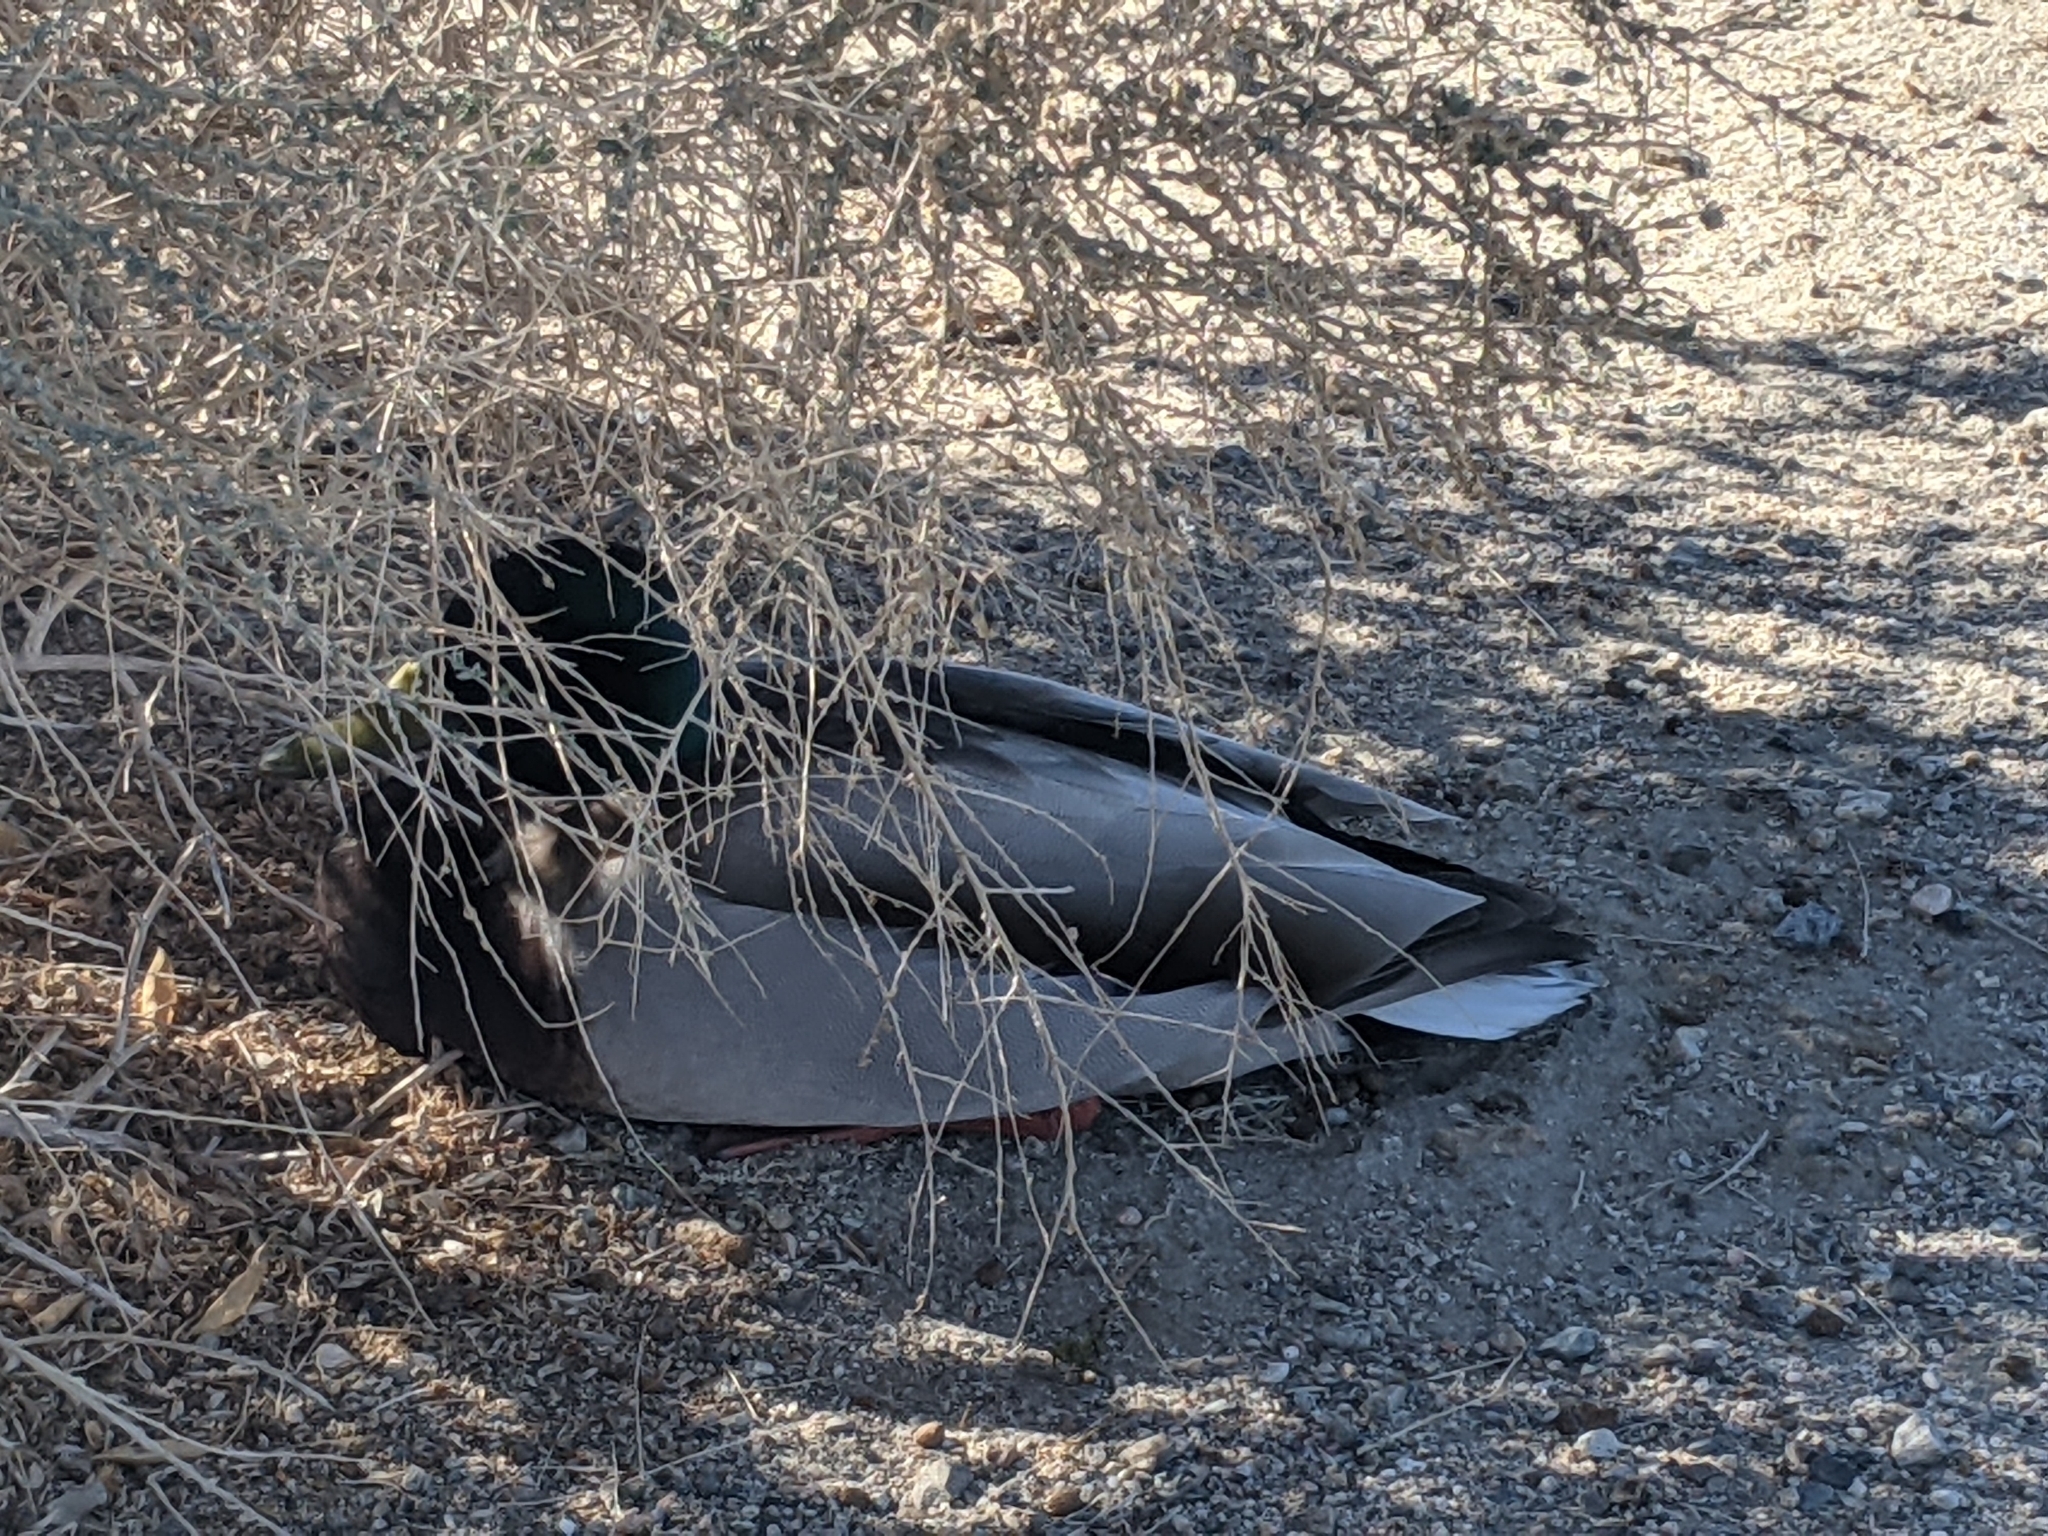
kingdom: Animalia
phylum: Chordata
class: Aves
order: Anseriformes
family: Anatidae
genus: Anas
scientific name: Anas platyrhynchos
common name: Mallard
